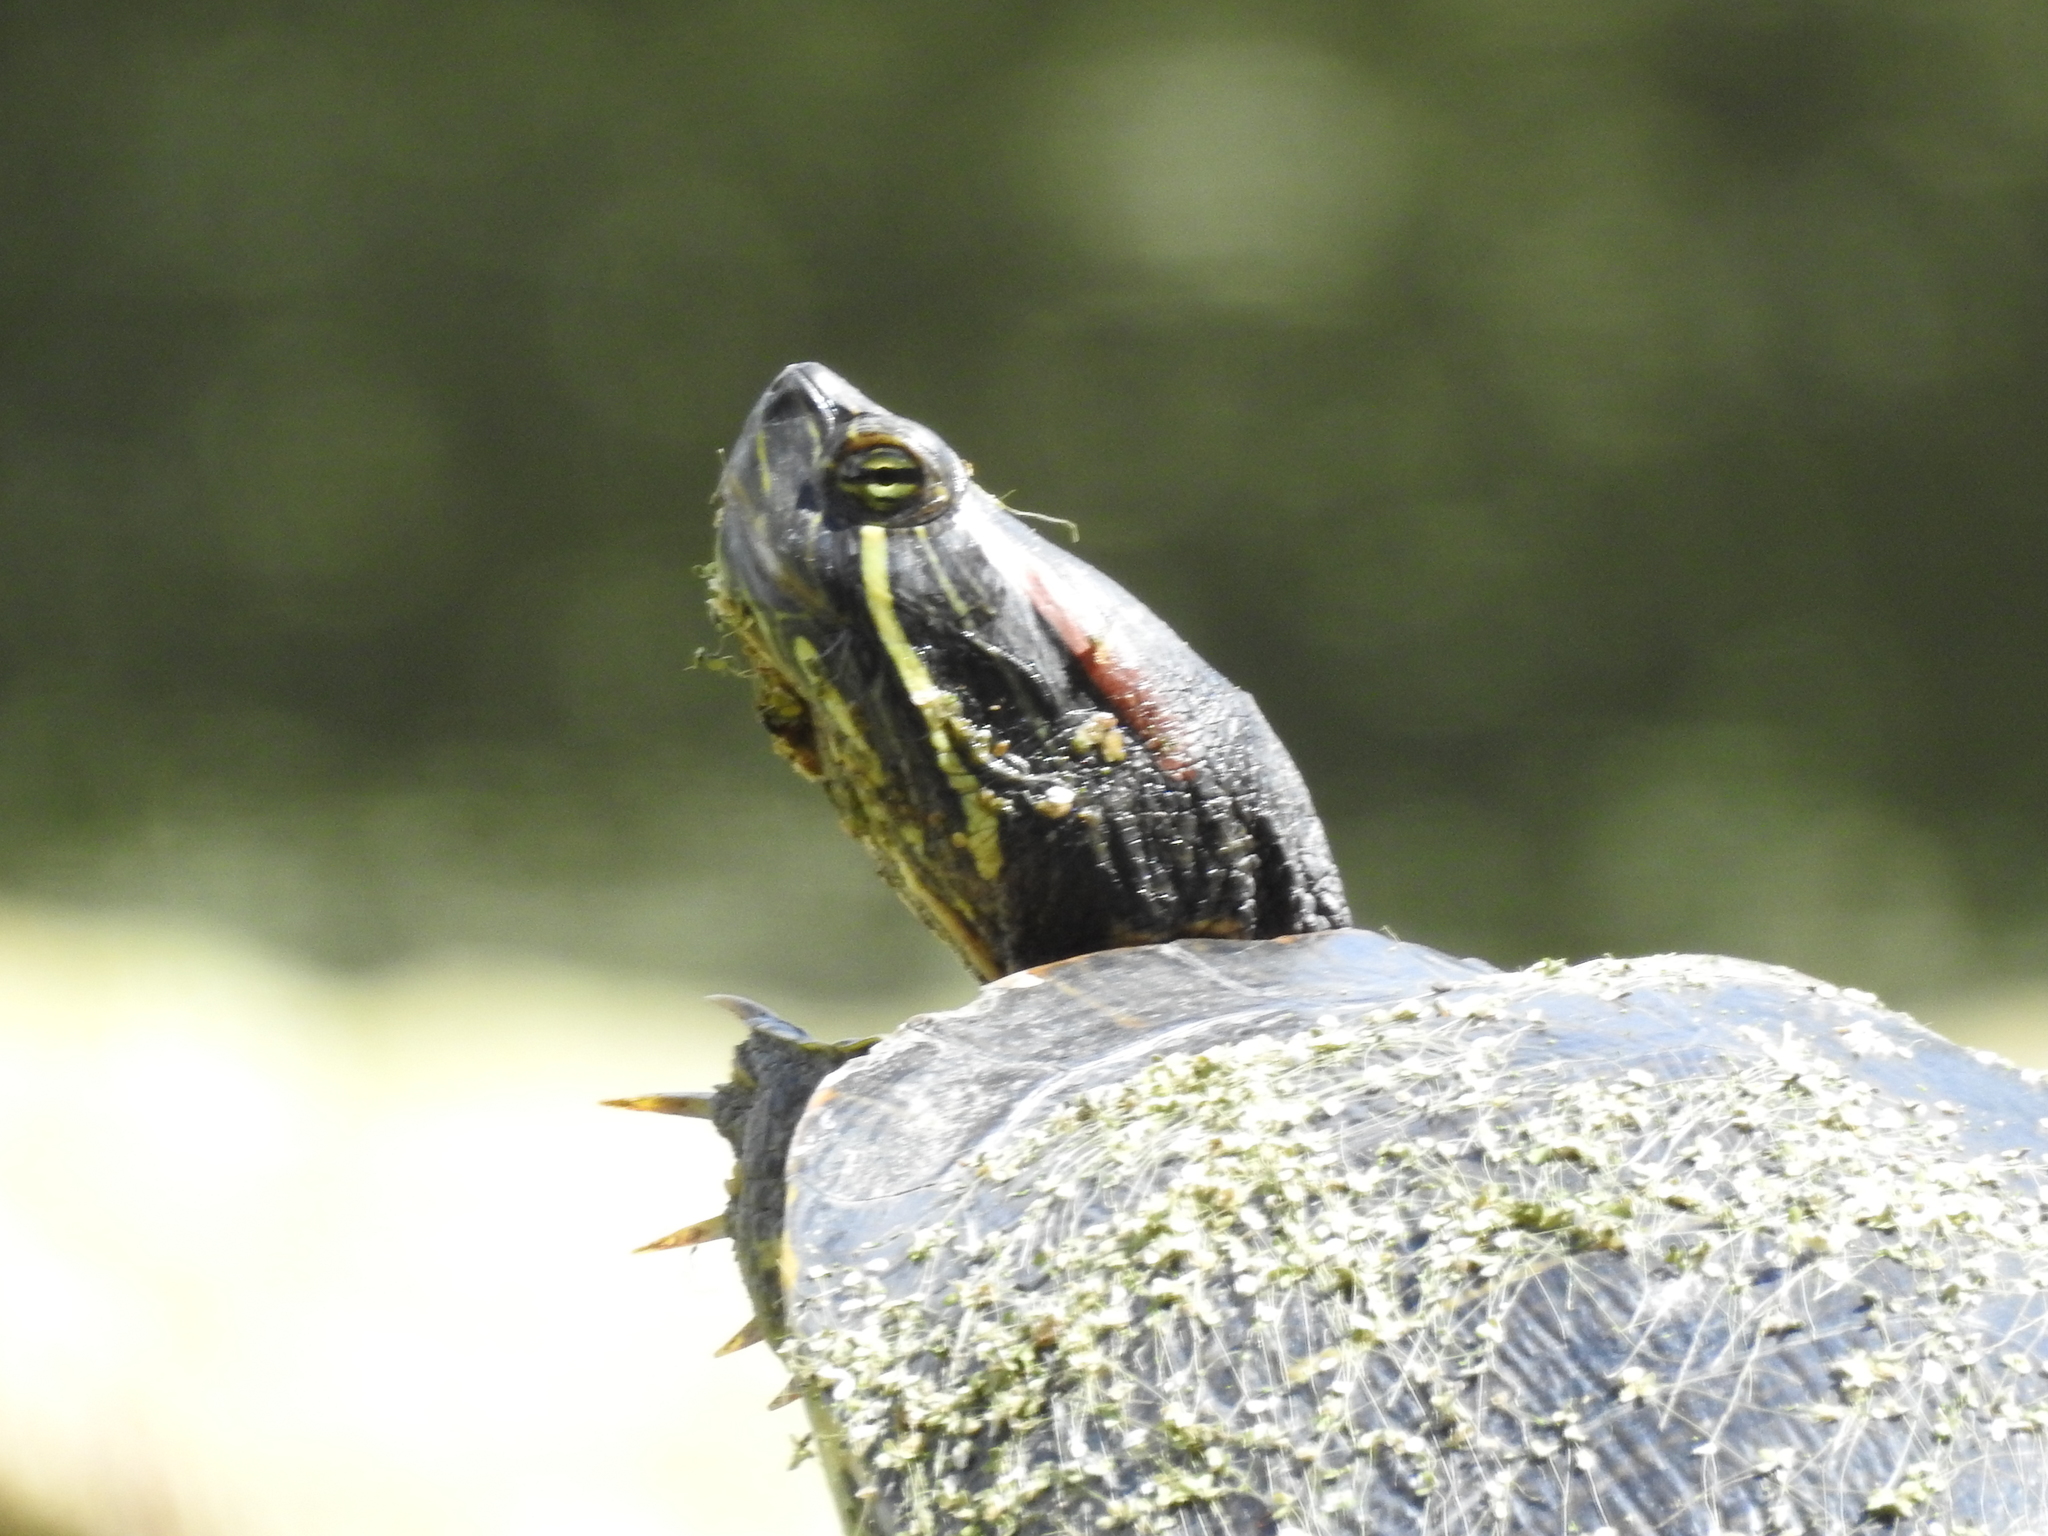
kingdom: Animalia
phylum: Chordata
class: Testudines
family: Emydidae
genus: Trachemys
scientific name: Trachemys scripta
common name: Slider
